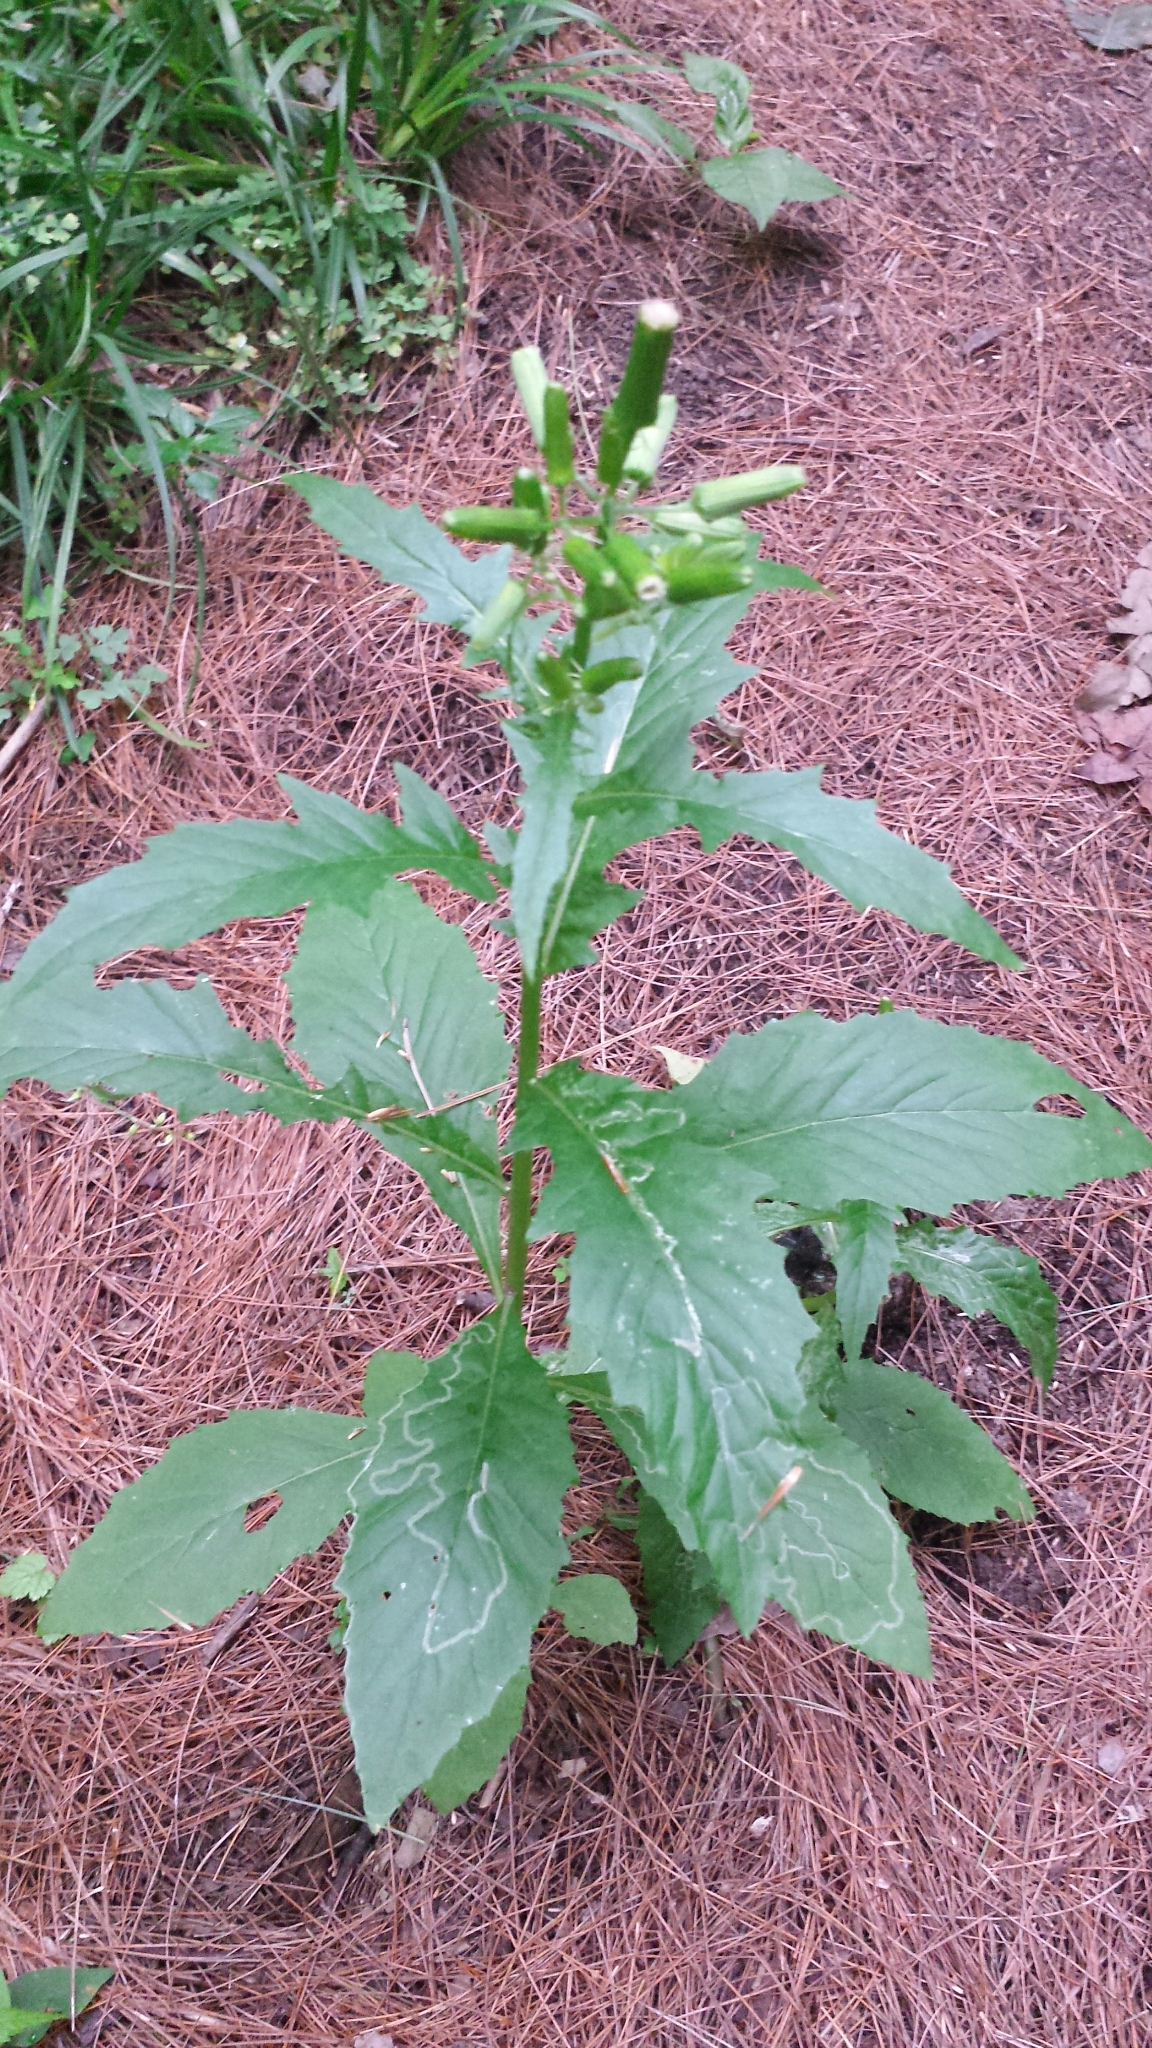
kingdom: Plantae
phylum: Tracheophyta
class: Magnoliopsida
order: Asterales
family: Asteraceae
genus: Erechtites
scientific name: Erechtites hieraciifolius
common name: American burnweed
